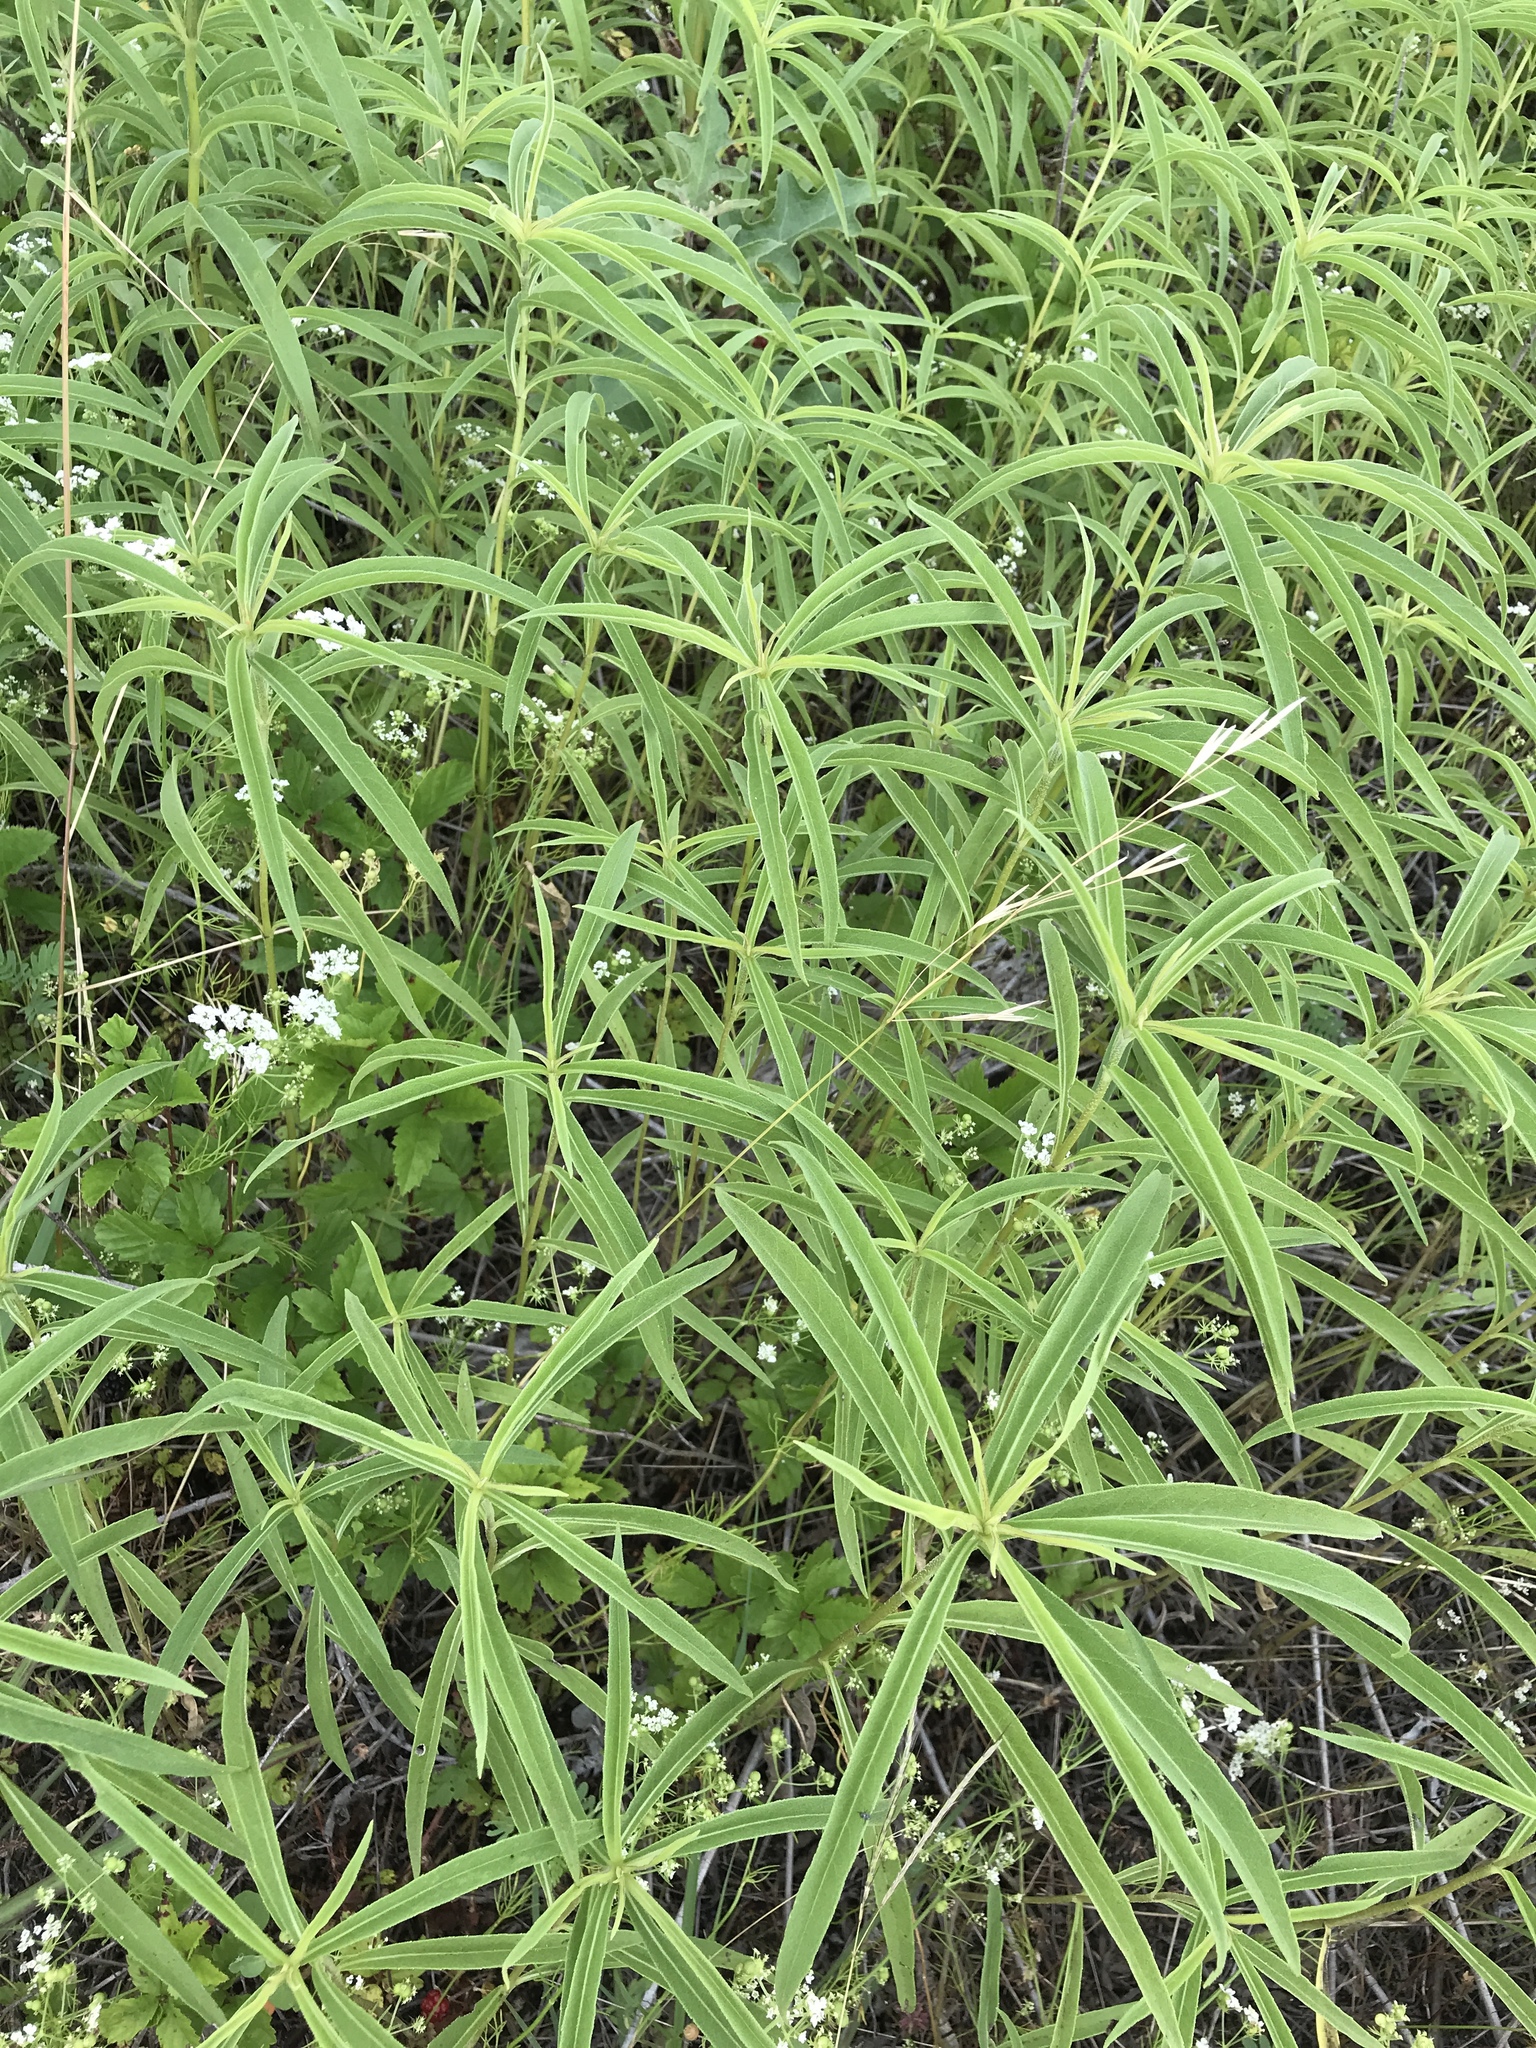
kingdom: Plantae
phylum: Tracheophyta
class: Magnoliopsida
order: Asterales
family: Asteraceae
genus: Helianthus
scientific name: Helianthus maximiliani
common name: Maximilian's sunflower
